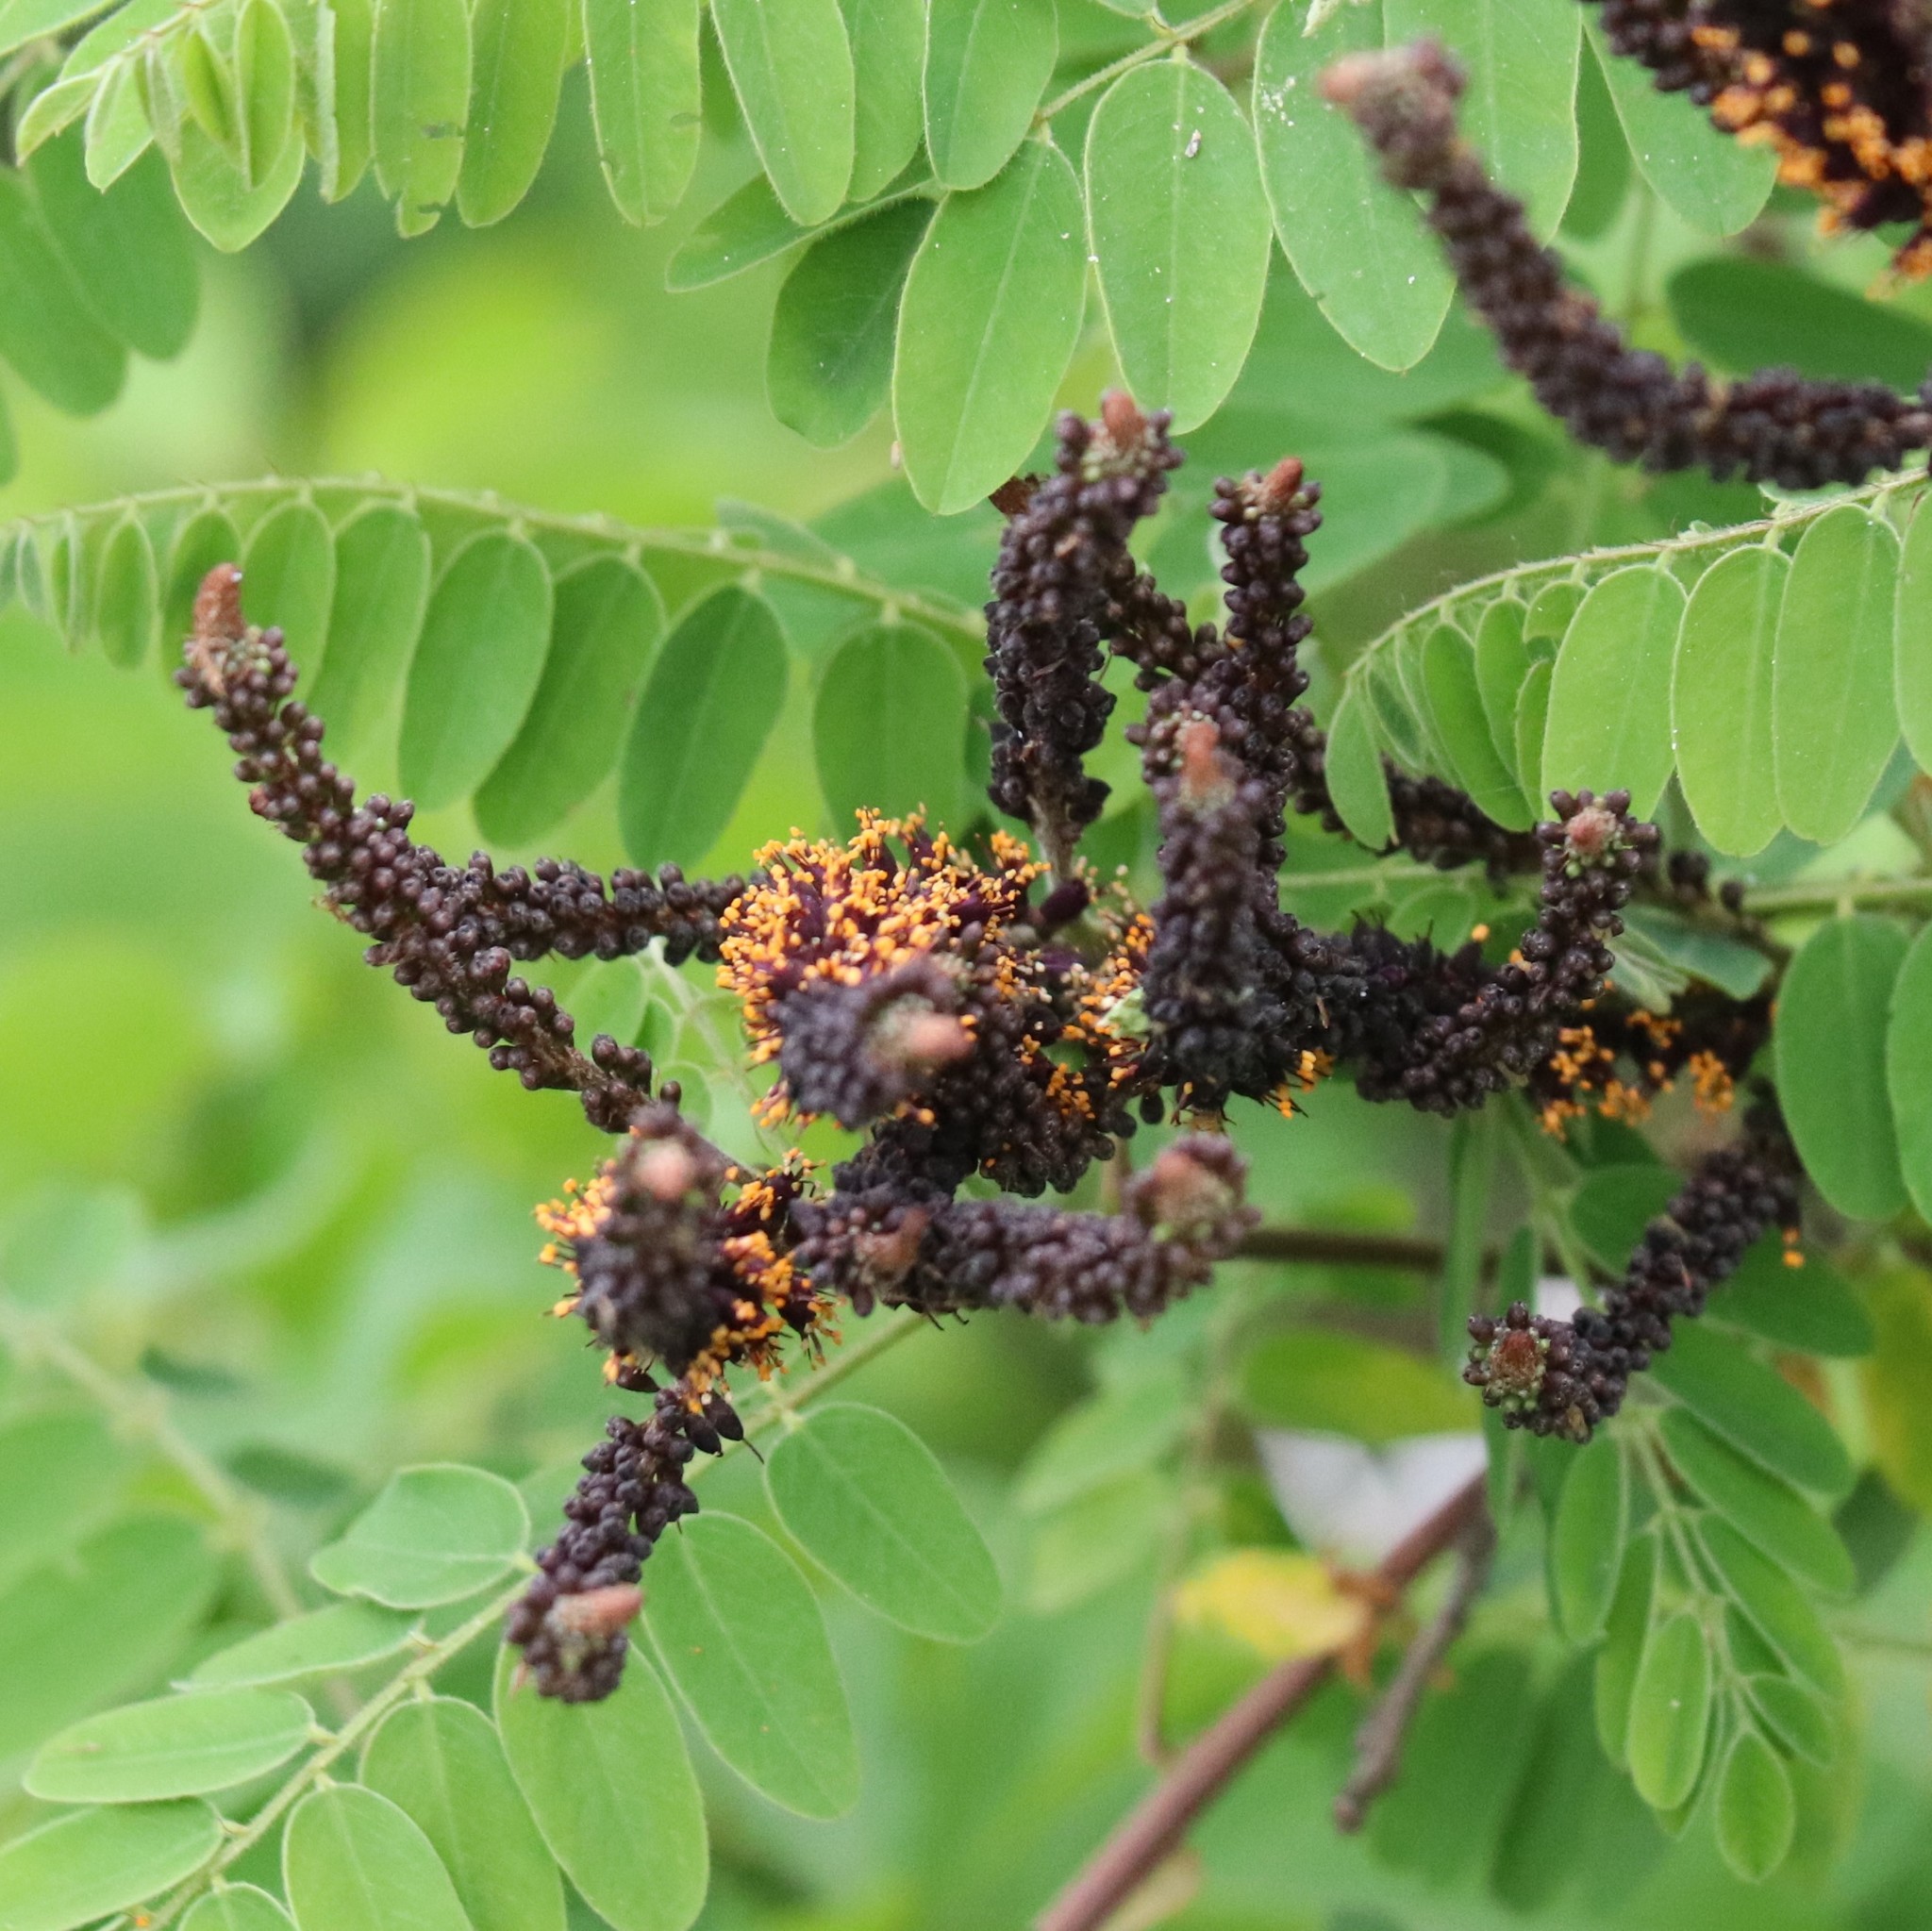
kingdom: Plantae
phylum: Tracheophyta
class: Magnoliopsida
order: Fabales
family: Fabaceae
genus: Amorpha
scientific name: Amorpha fruticosa
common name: False indigo
